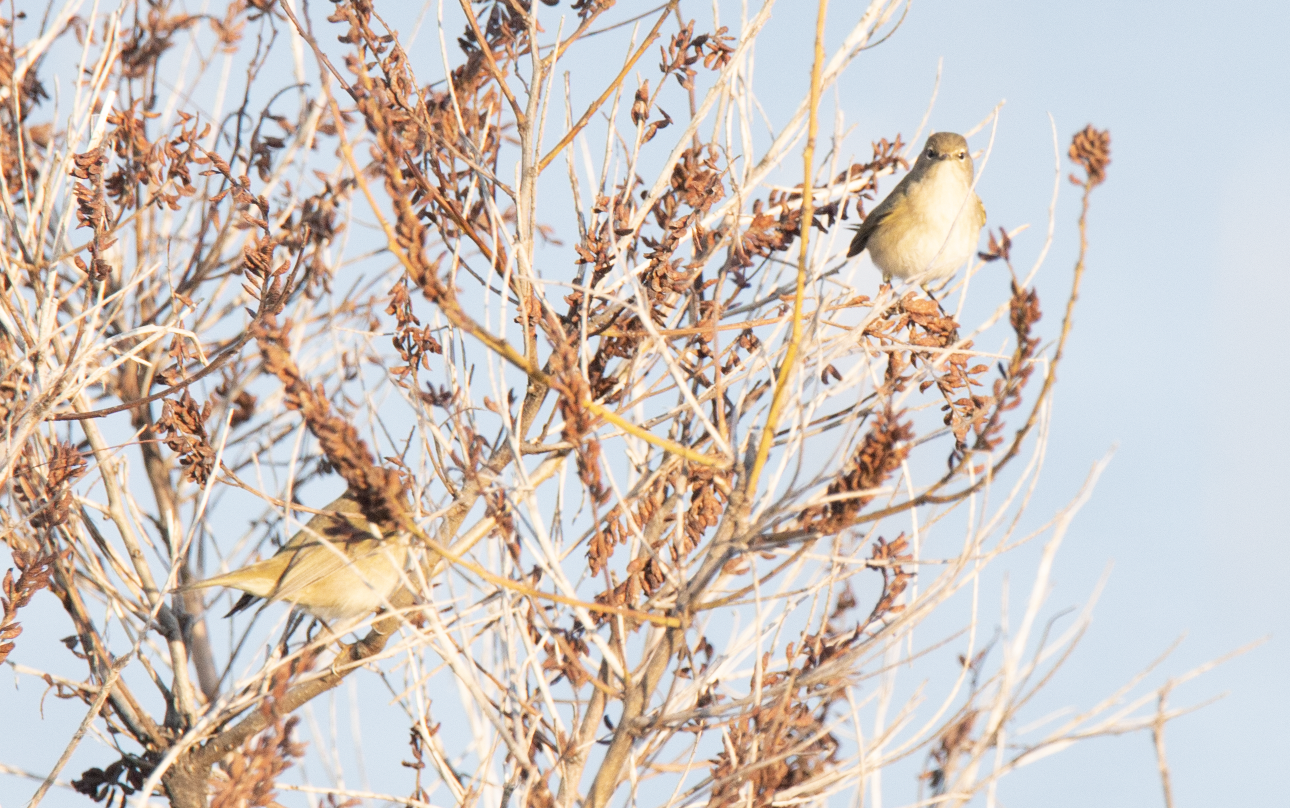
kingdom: Animalia
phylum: Chordata
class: Aves
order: Passeriformes
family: Phylloscopidae
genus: Phylloscopus
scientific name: Phylloscopus collybita
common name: Common chiffchaff
